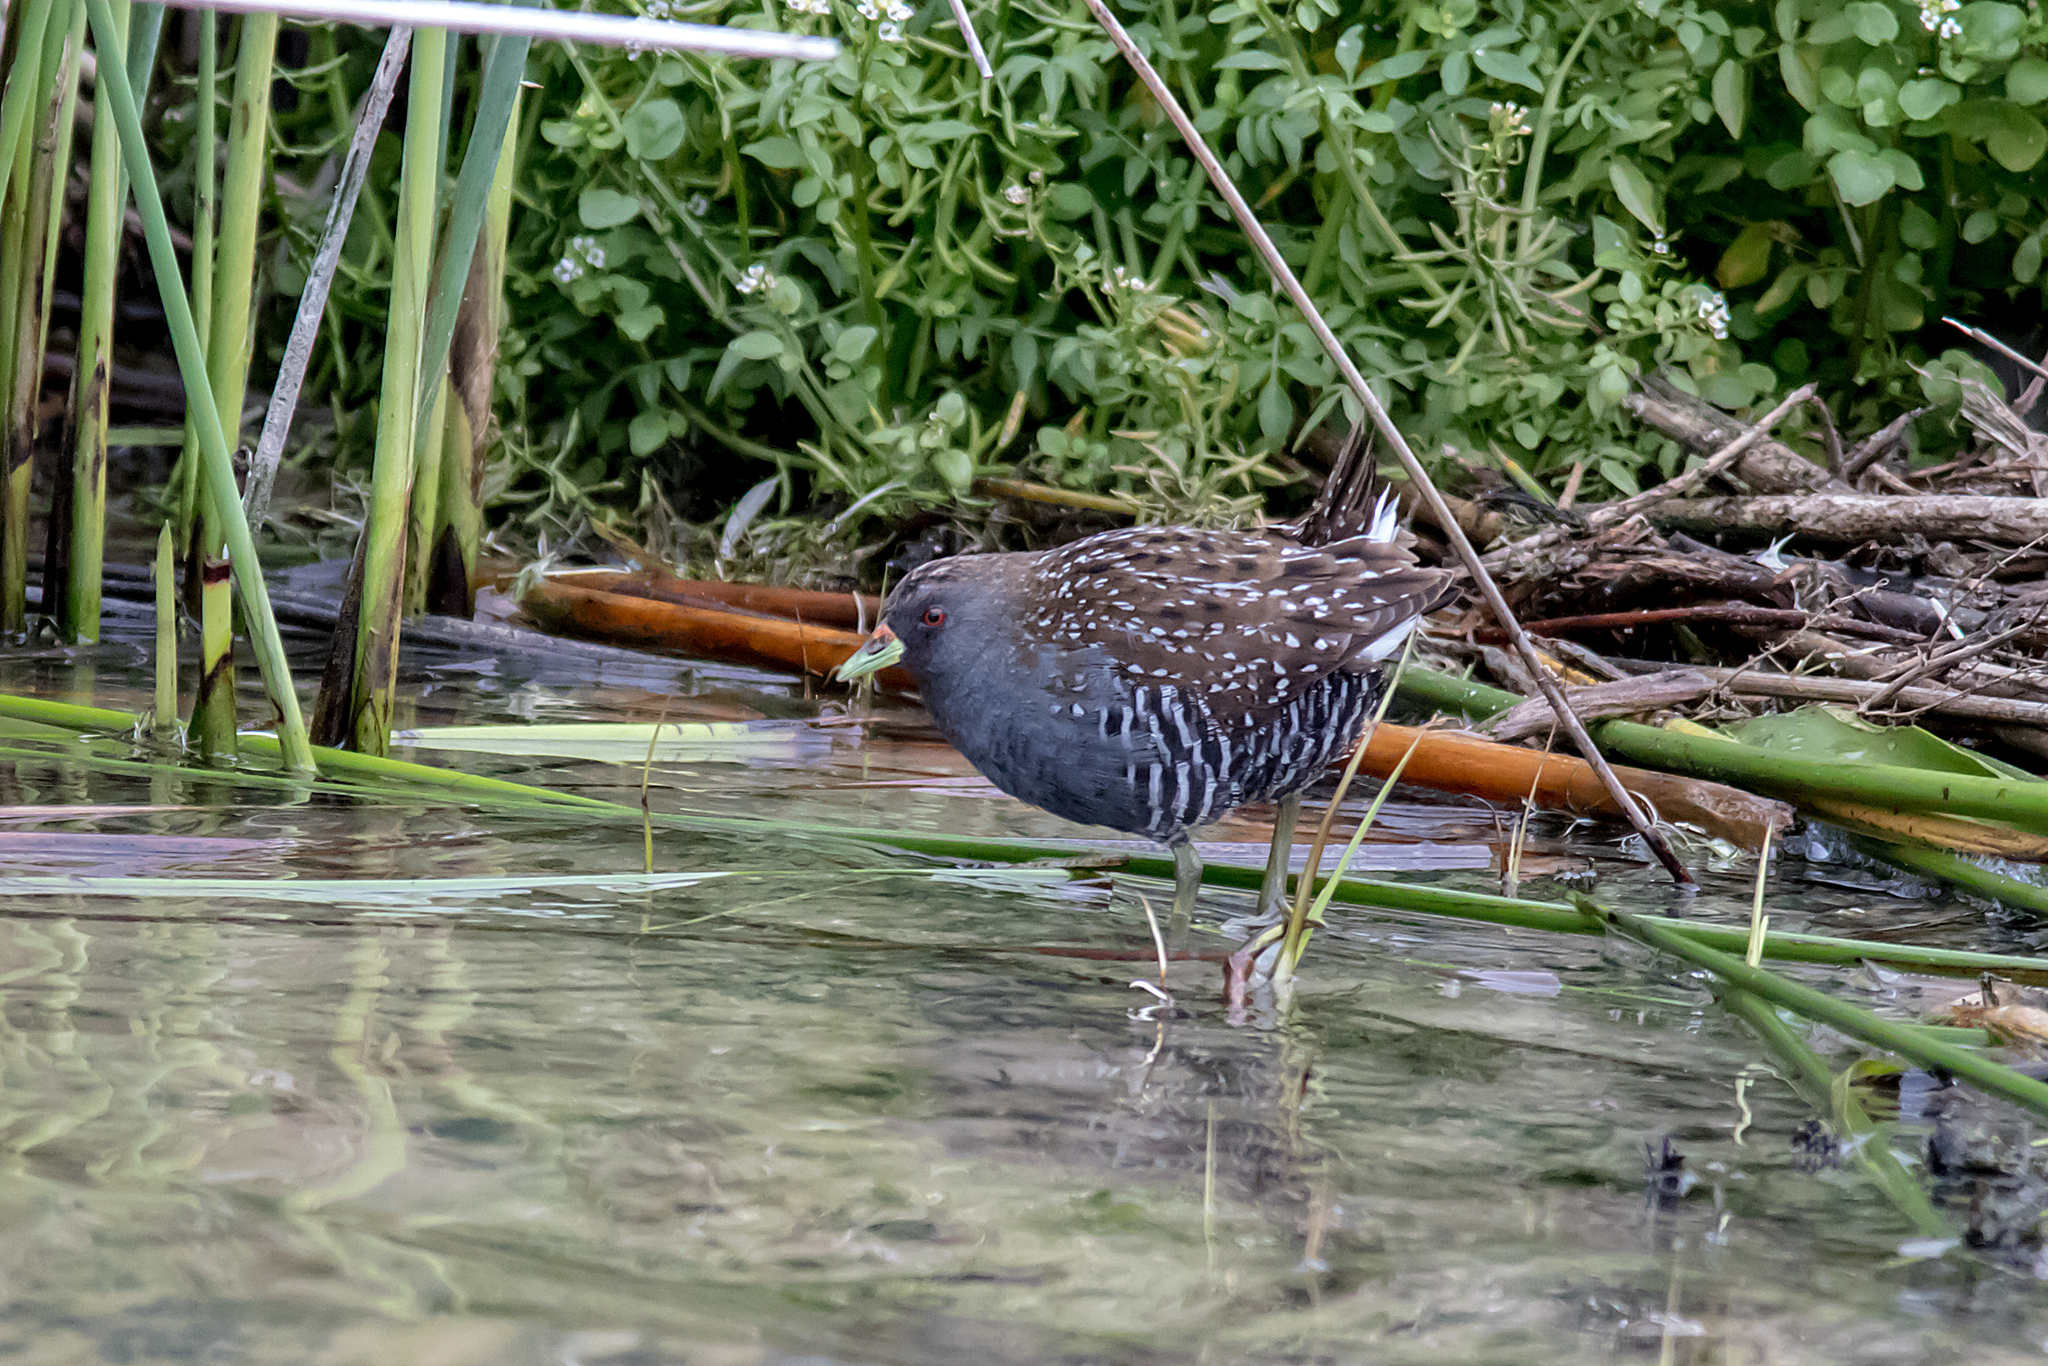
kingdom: Animalia
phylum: Chordata
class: Aves
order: Gruiformes
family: Rallidae
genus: Porzana
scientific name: Porzana fluminea
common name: Australian crake
